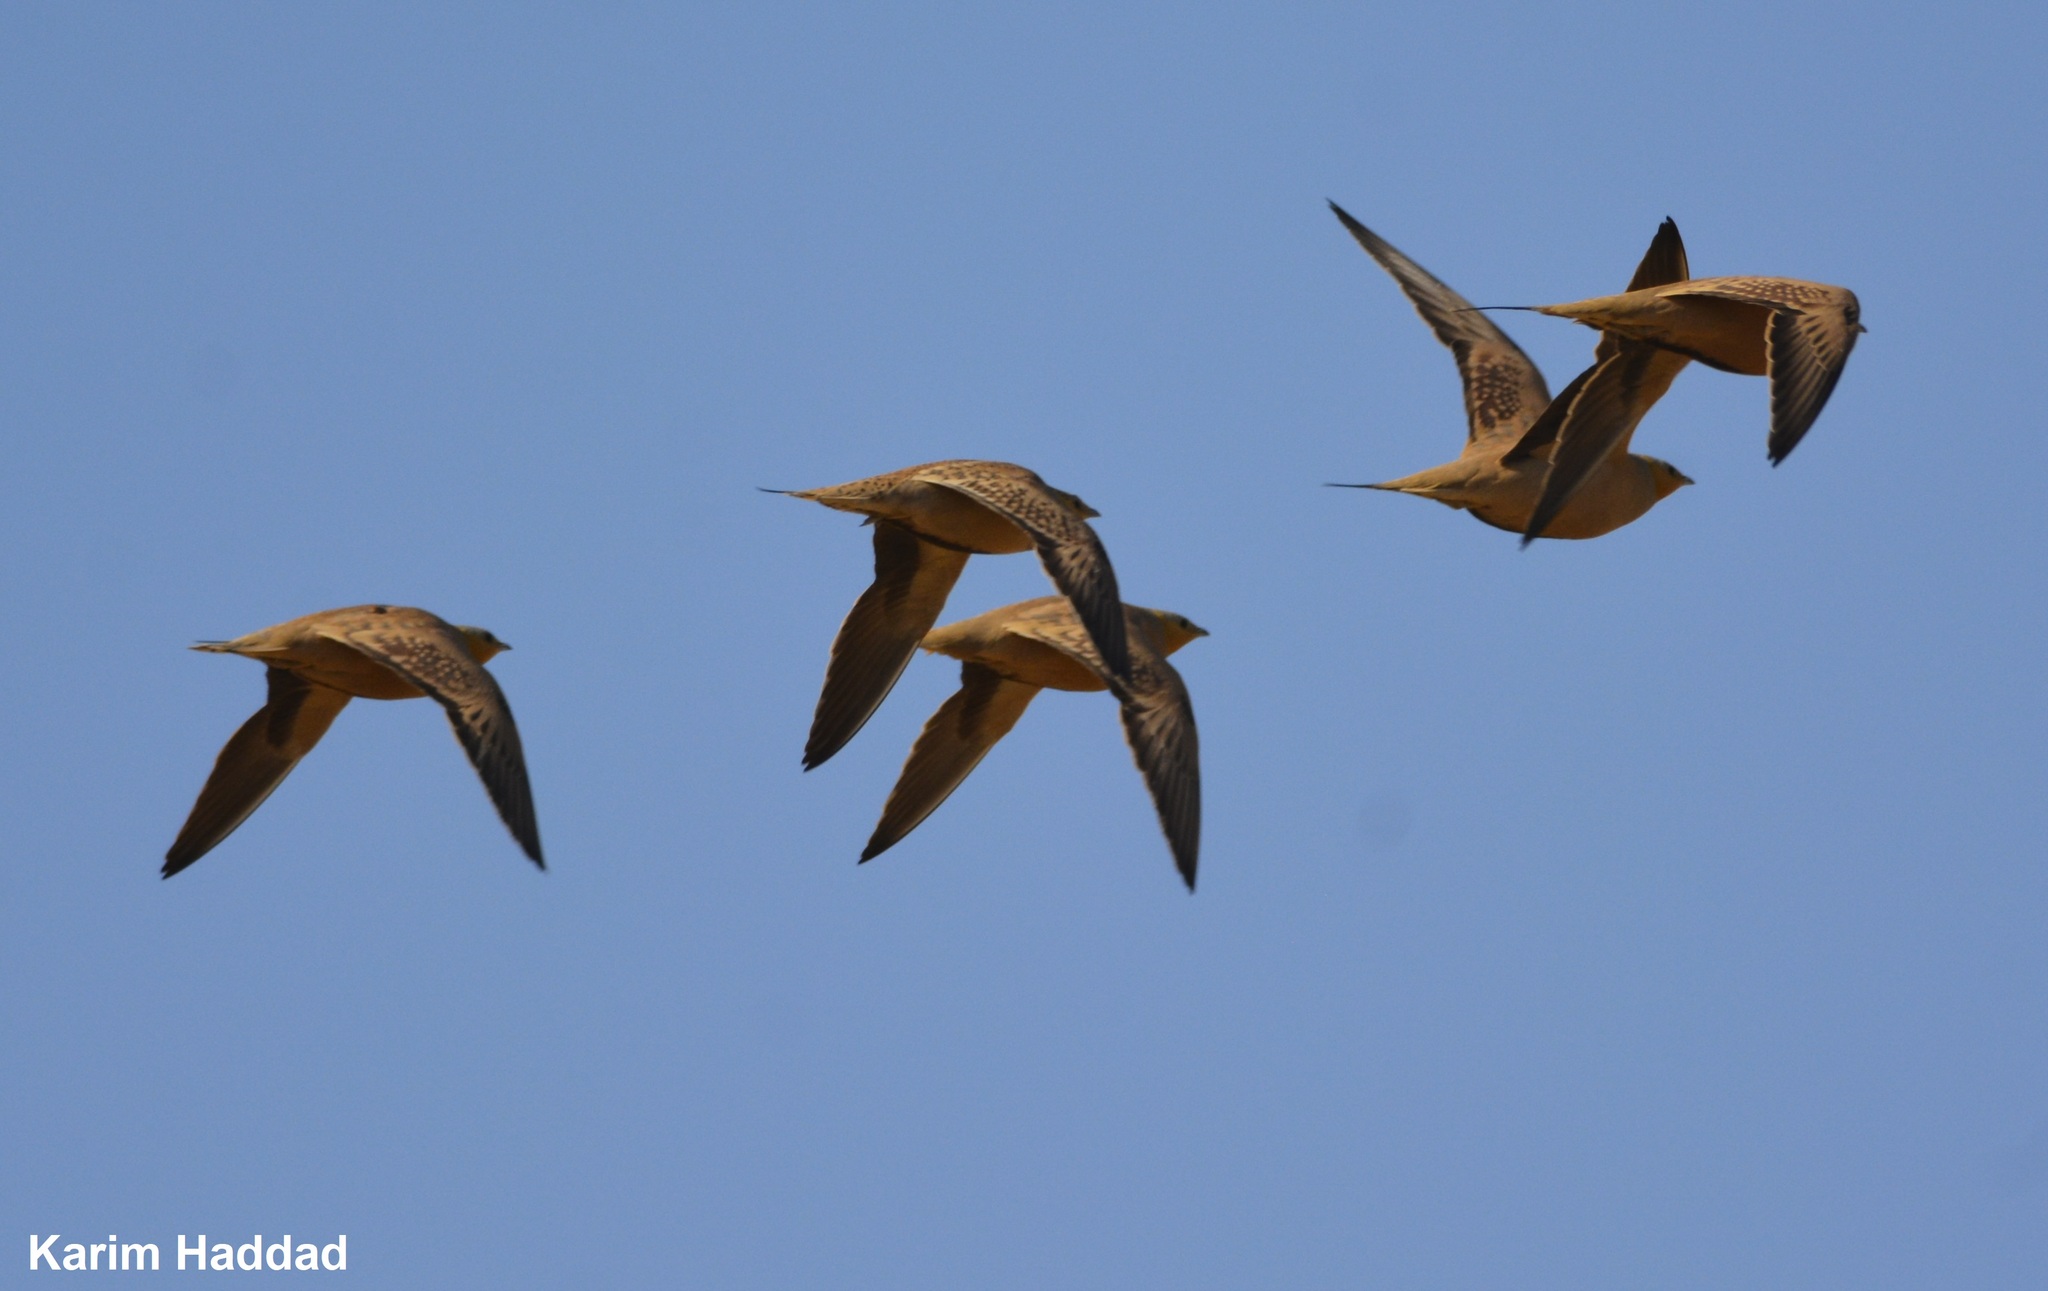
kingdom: Animalia
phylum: Chordata
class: Aves
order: Pteroclidiformes
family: Pteroclididae
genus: Pterocles
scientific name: Pterocles senegallus
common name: Spotted sandgrouse
